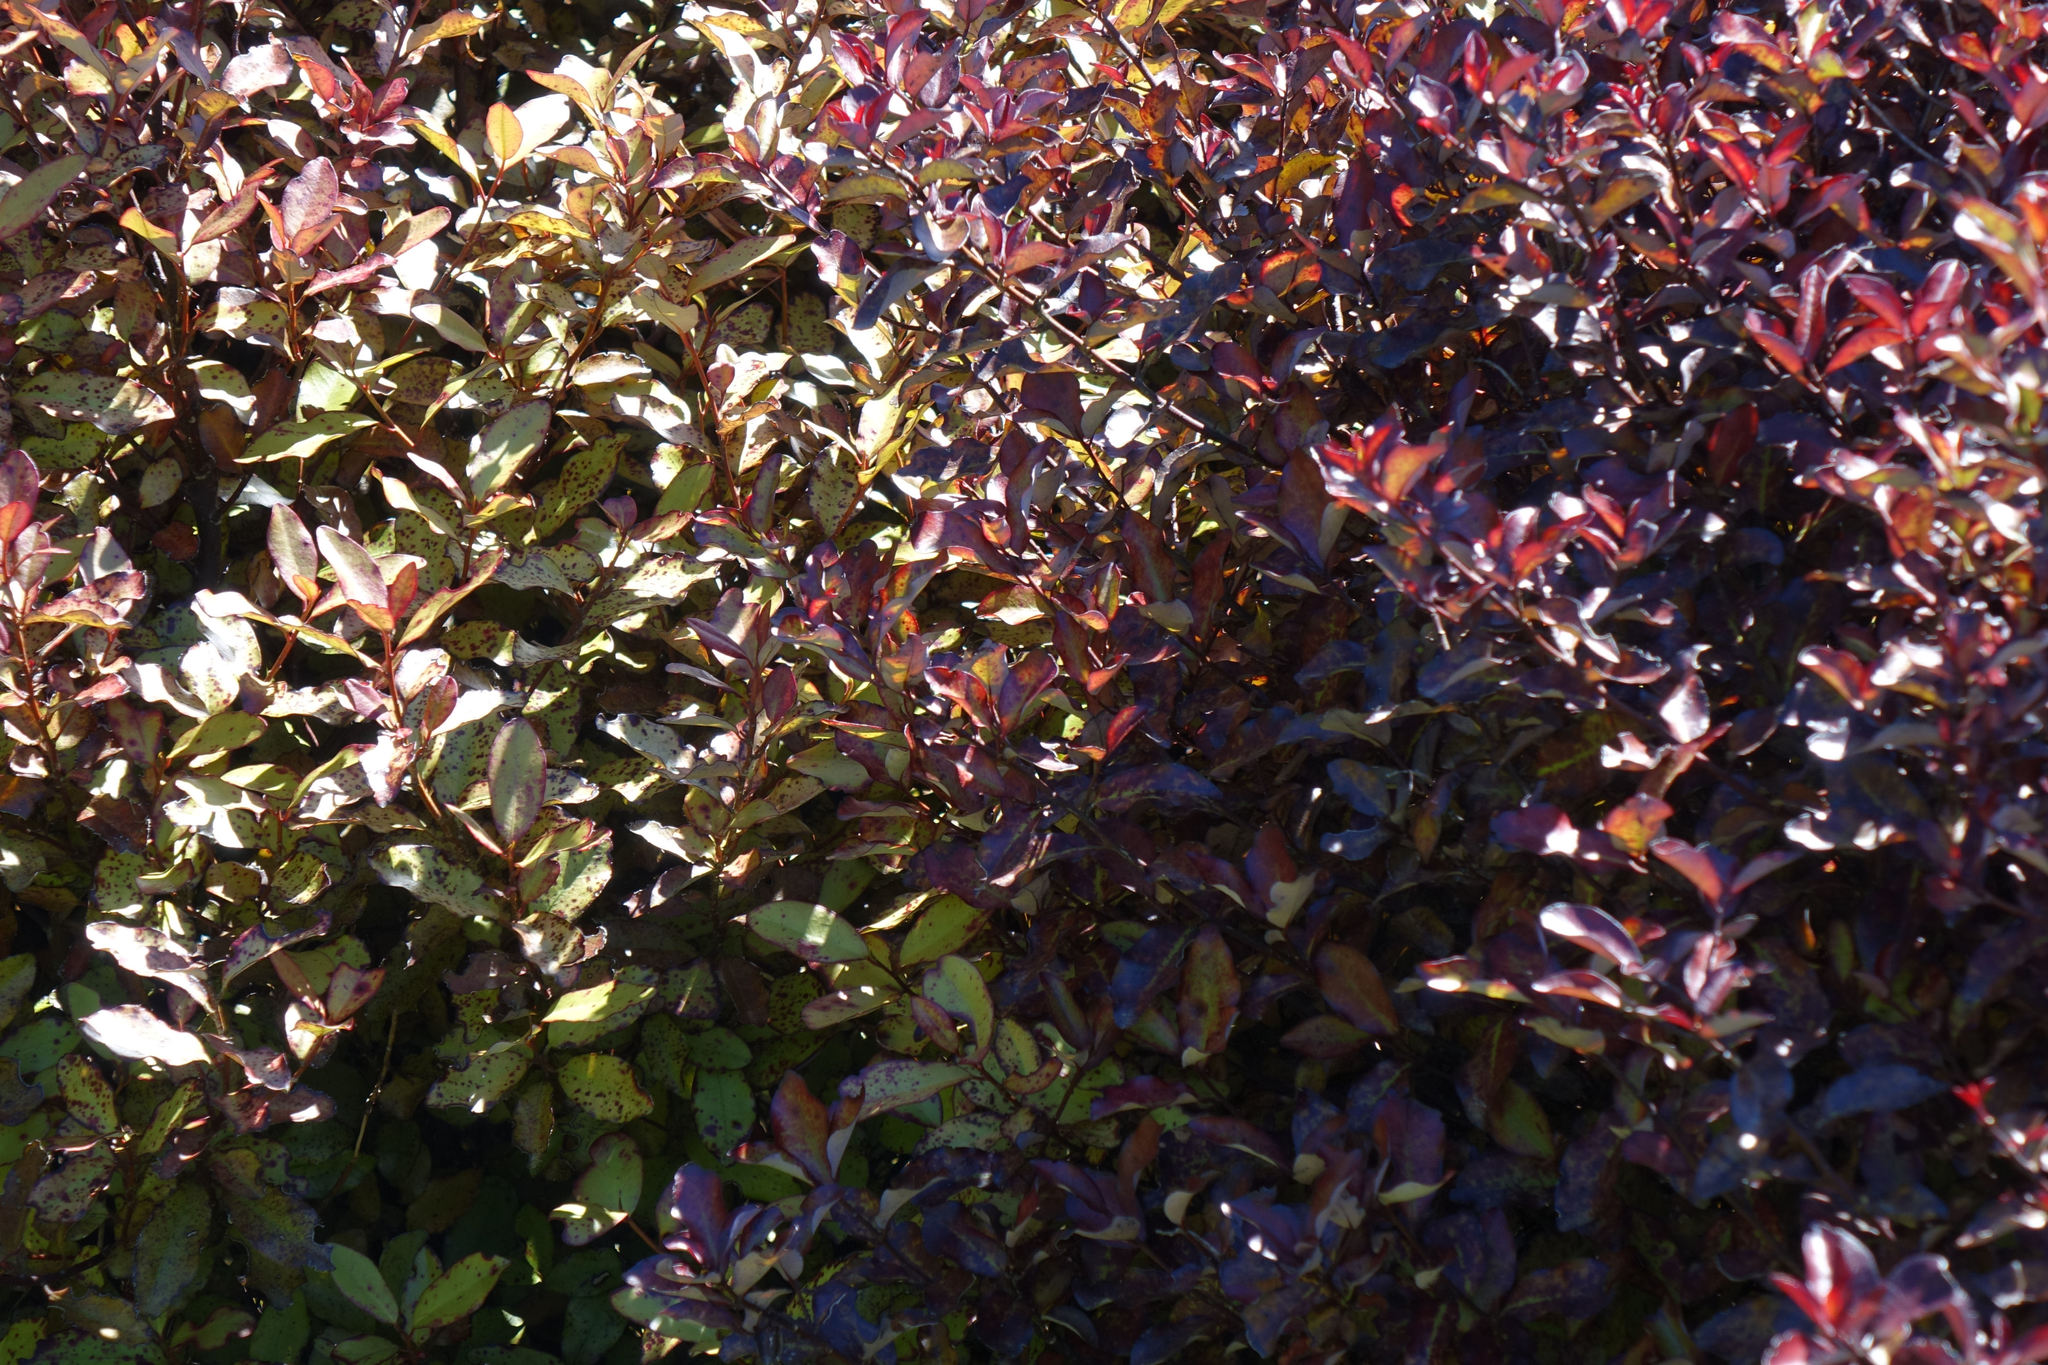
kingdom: Plantae
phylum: Tracheophyta
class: Magnoliopsida
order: Canellales
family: Winteraceae
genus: Pseudowintera
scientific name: Pseudowintera colorata
